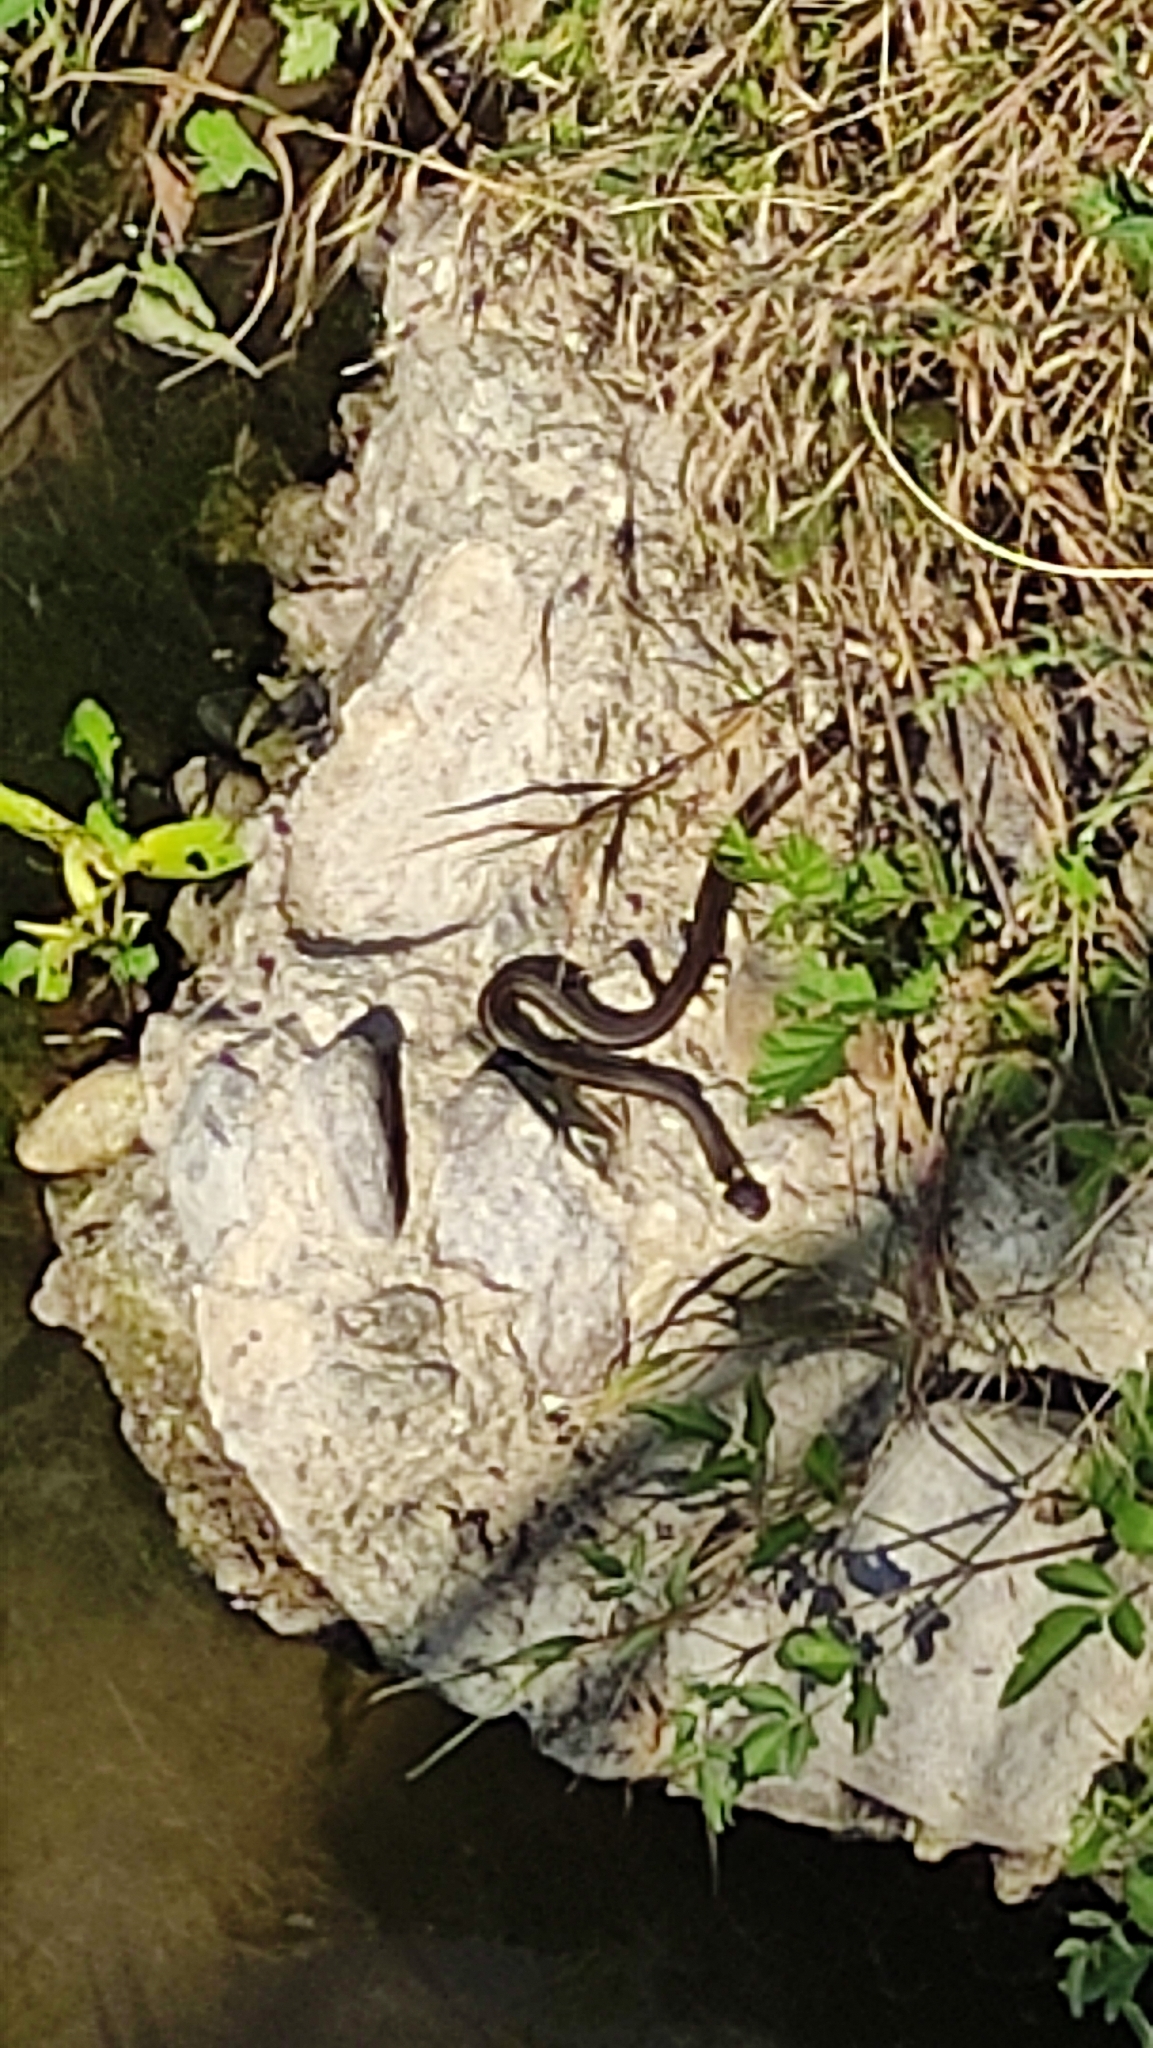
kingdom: Animalia
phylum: Chordata
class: Squamata
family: Colubridae
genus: Natrix
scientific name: Natrix natrix
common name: Grass snake
